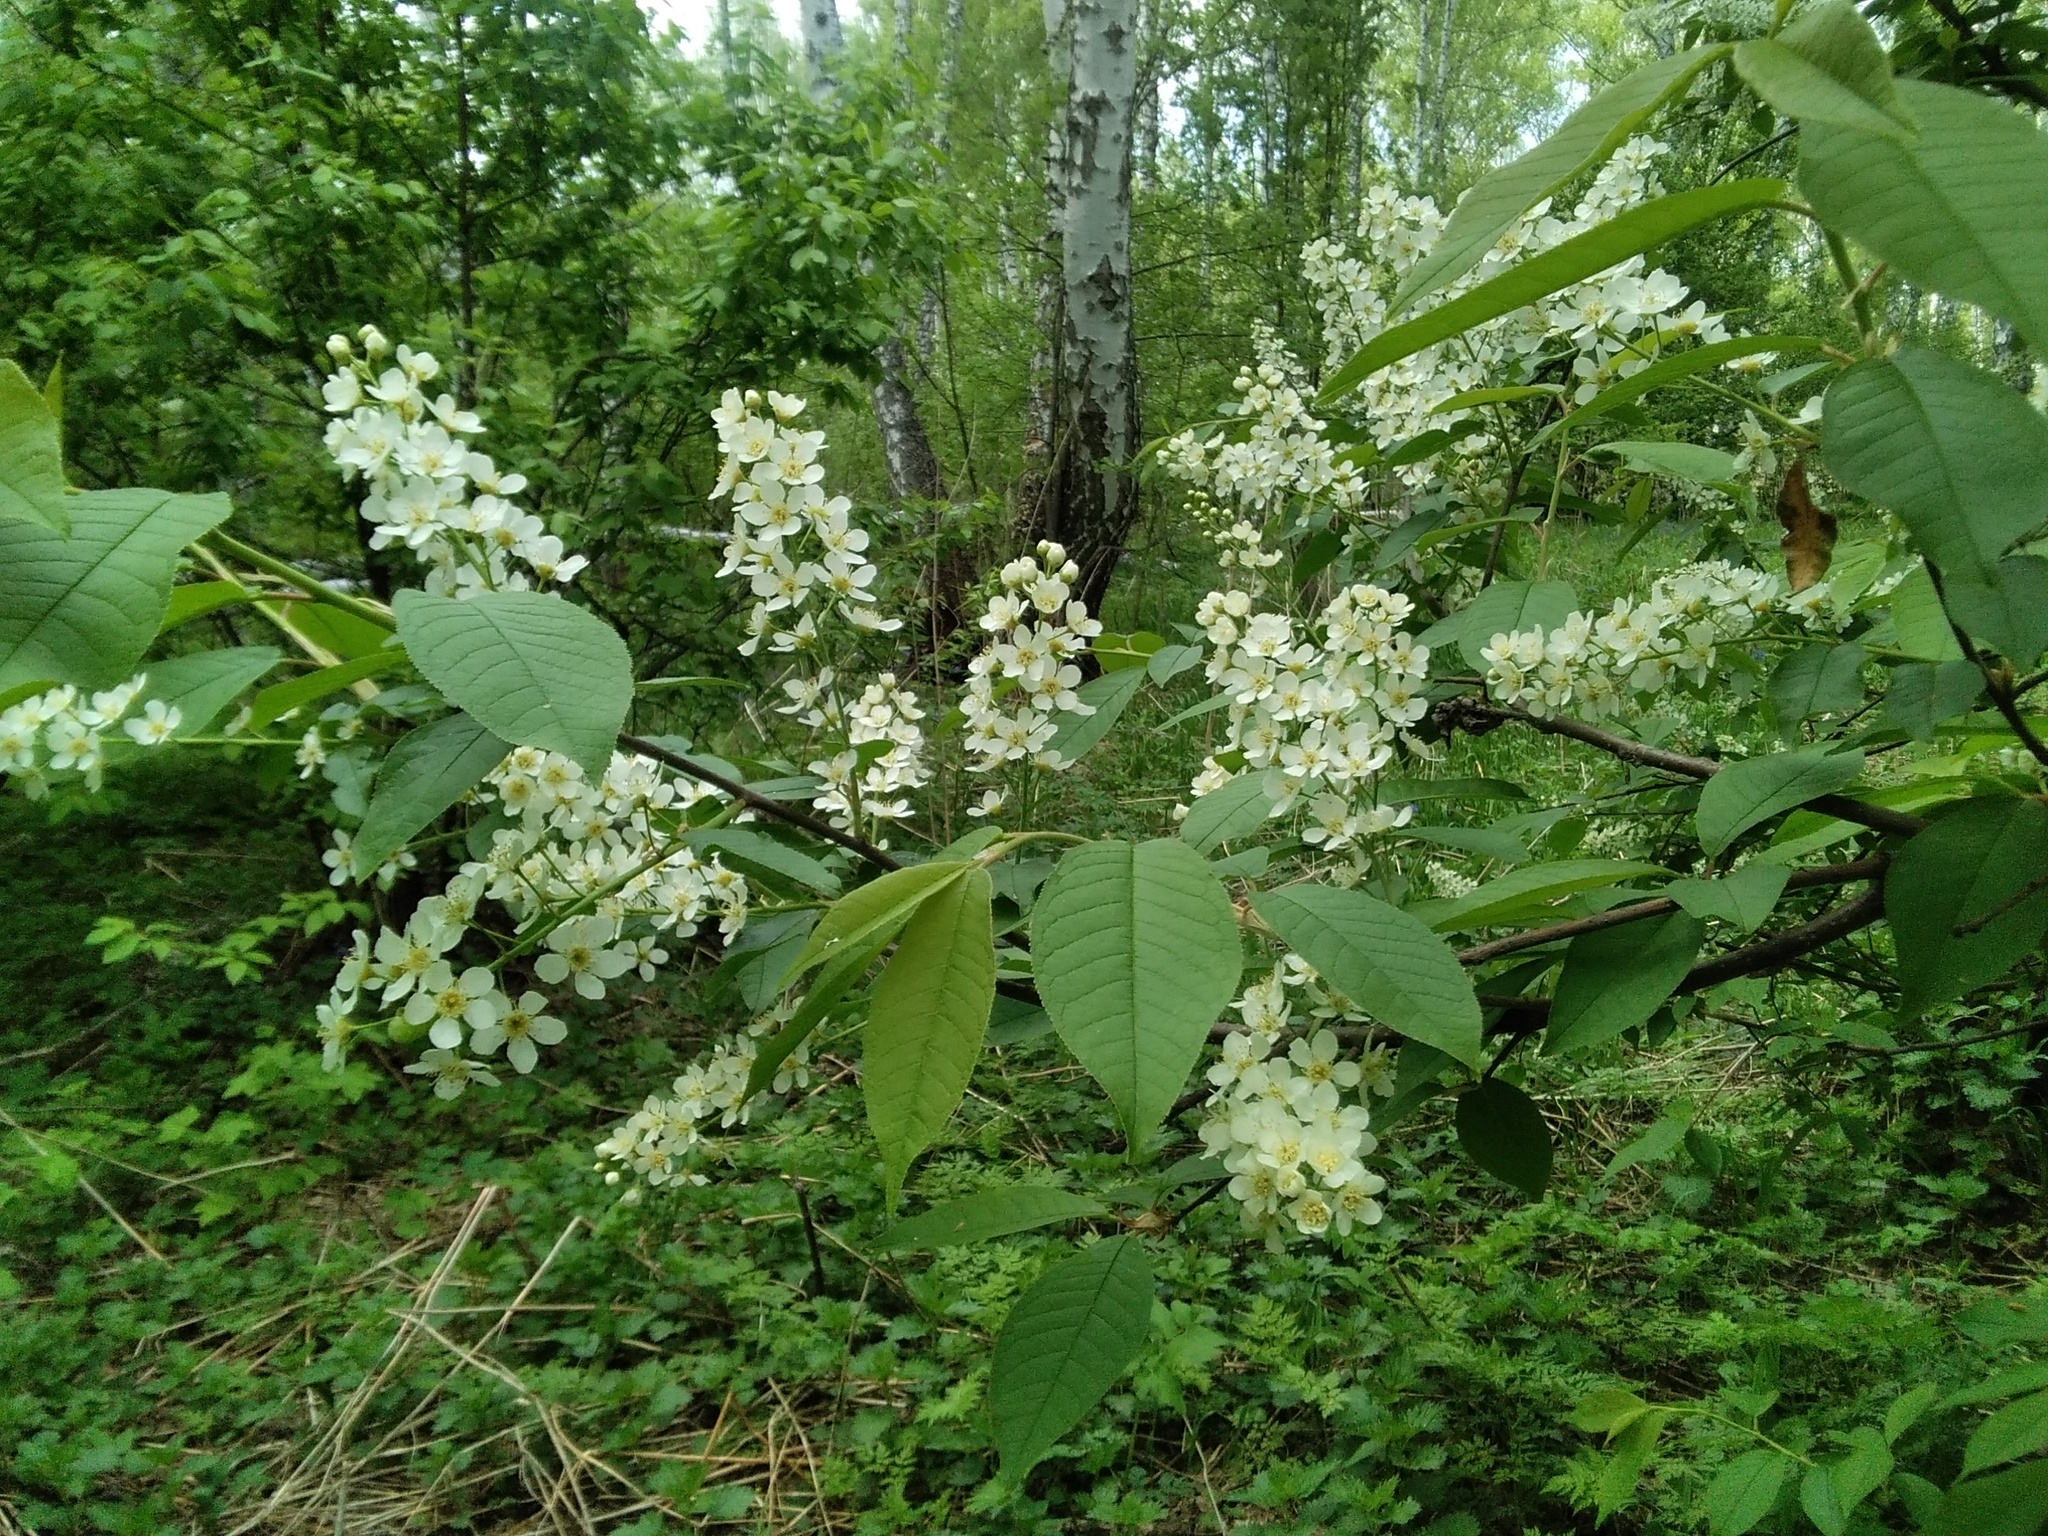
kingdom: Plantae
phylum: Tracheophyta
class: Magnoliopsida
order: Rosales
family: Rosaceae
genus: Prunus
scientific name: Prunus padus
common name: Bird cherry
